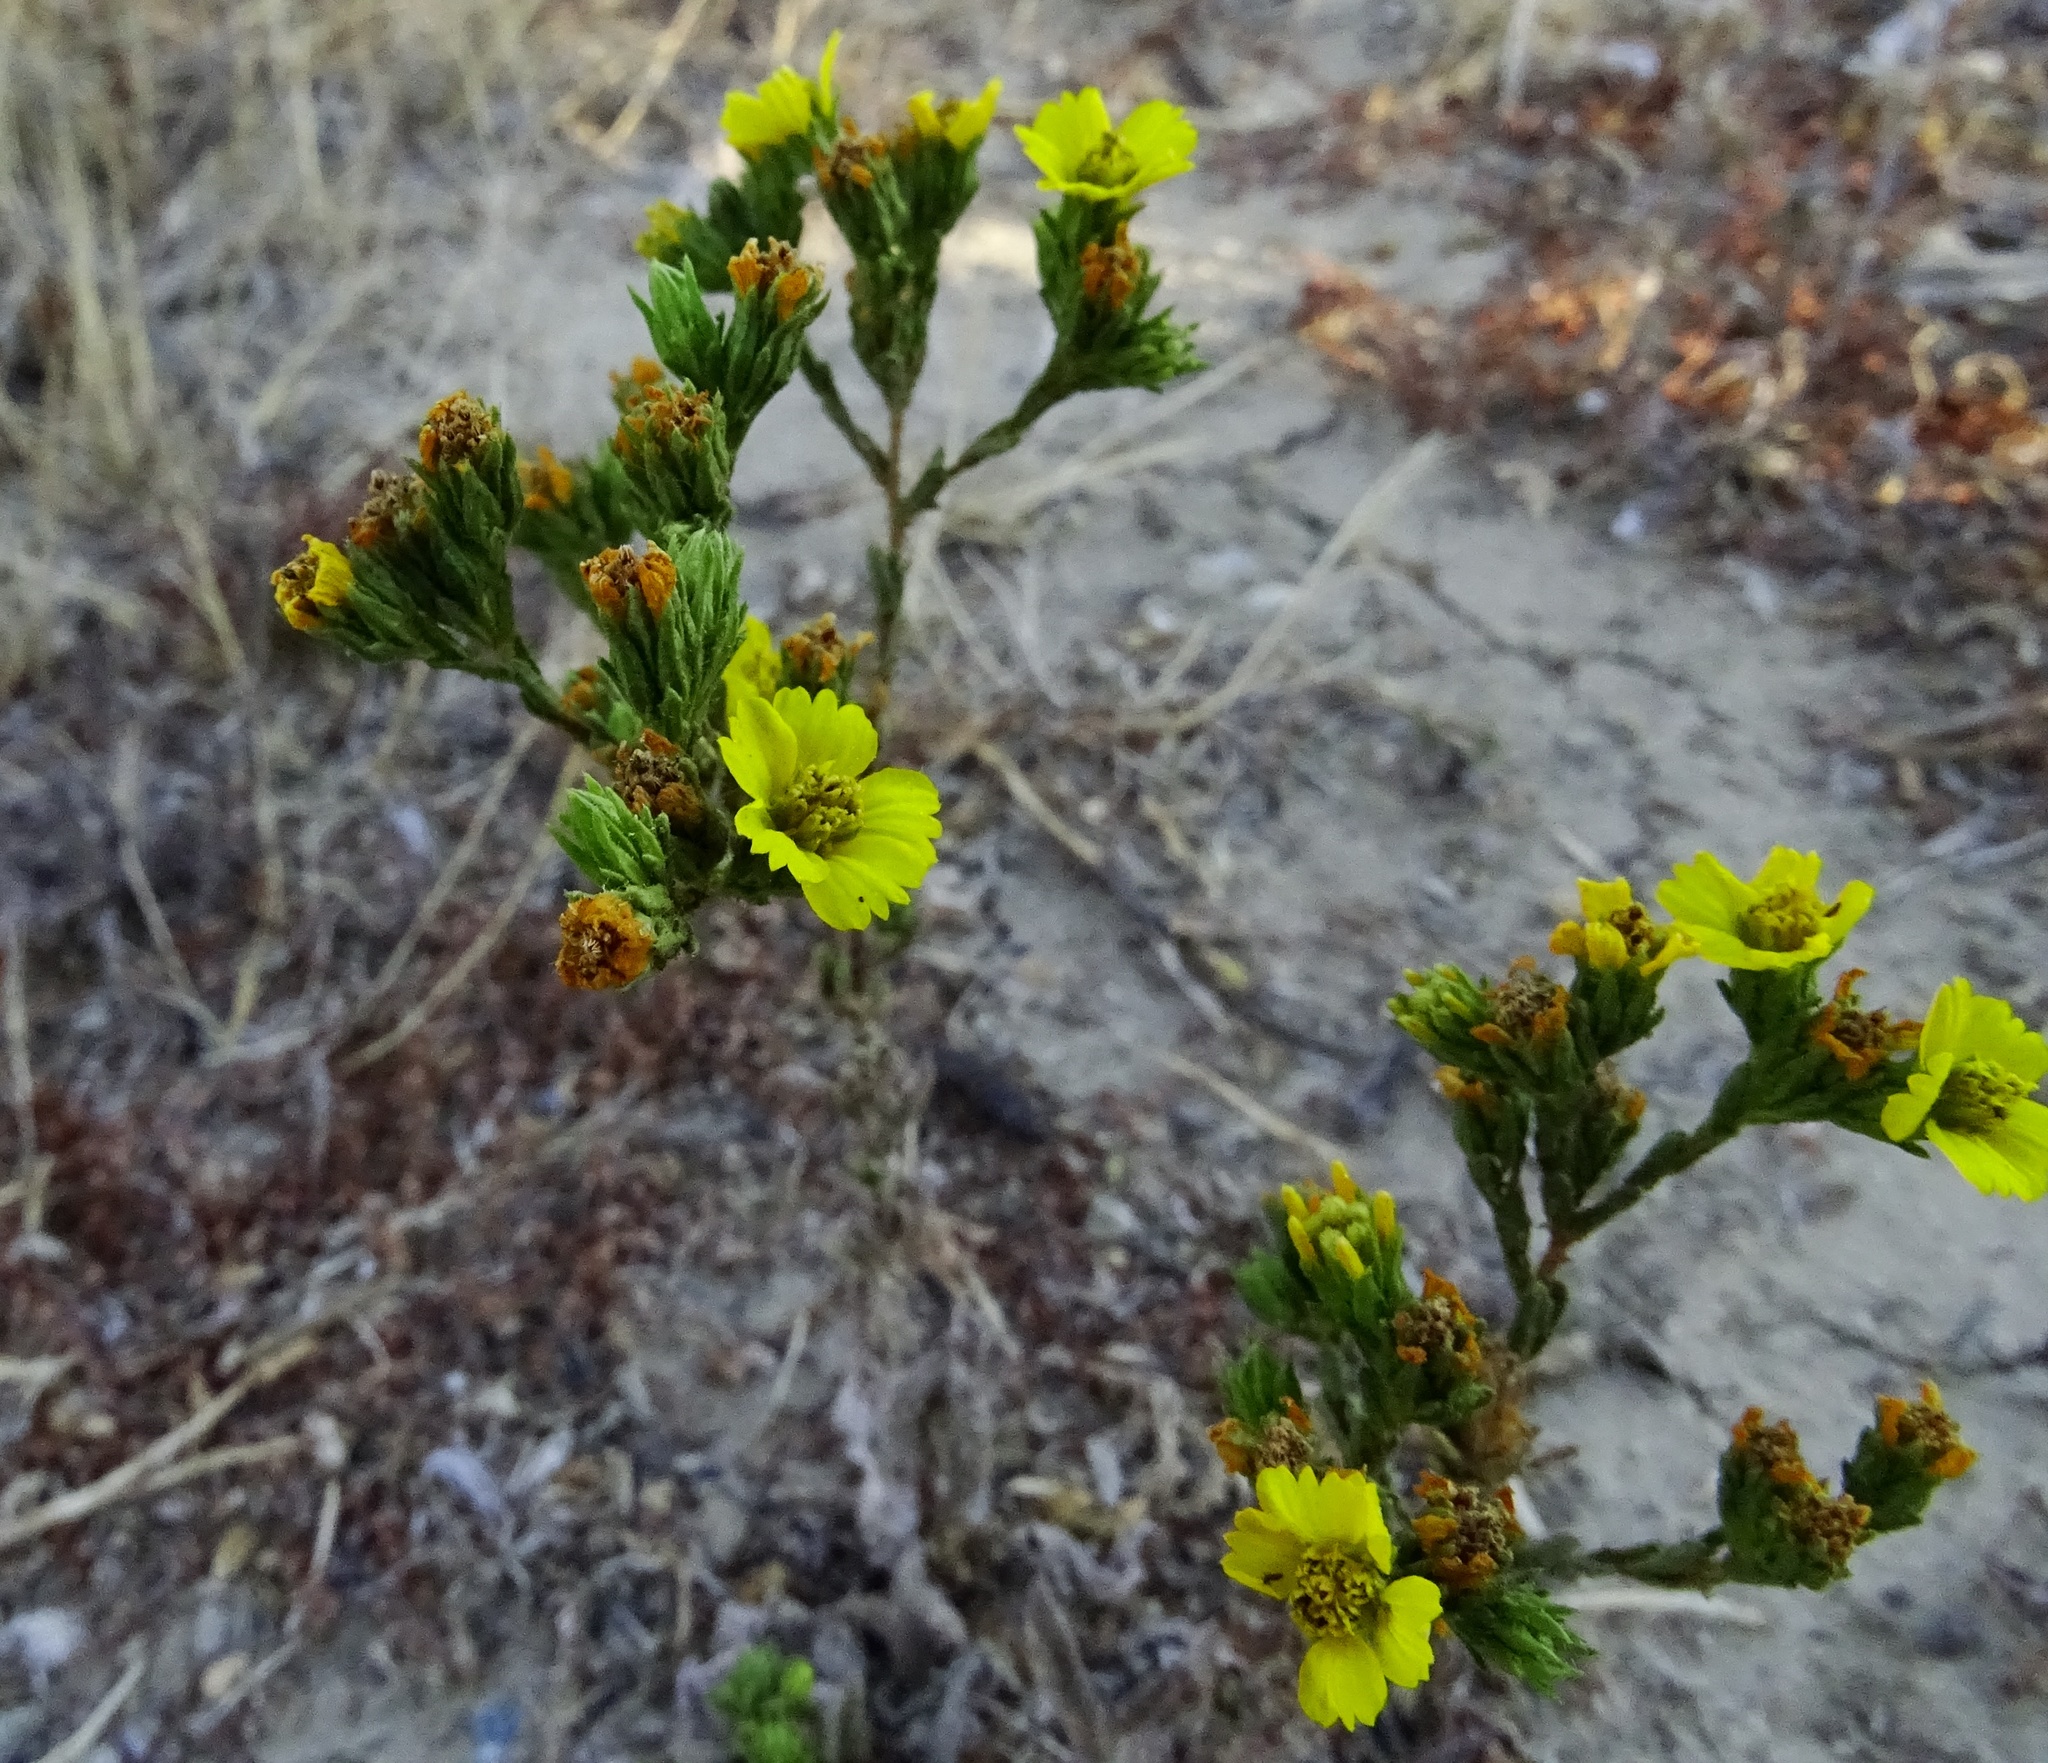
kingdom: Plantae
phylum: Tracheophyta
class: Magnoliopsida
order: Asterales
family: Asteraceae
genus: Deinandra
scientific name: Deinandra fasciculata
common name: Clustered tarweed
